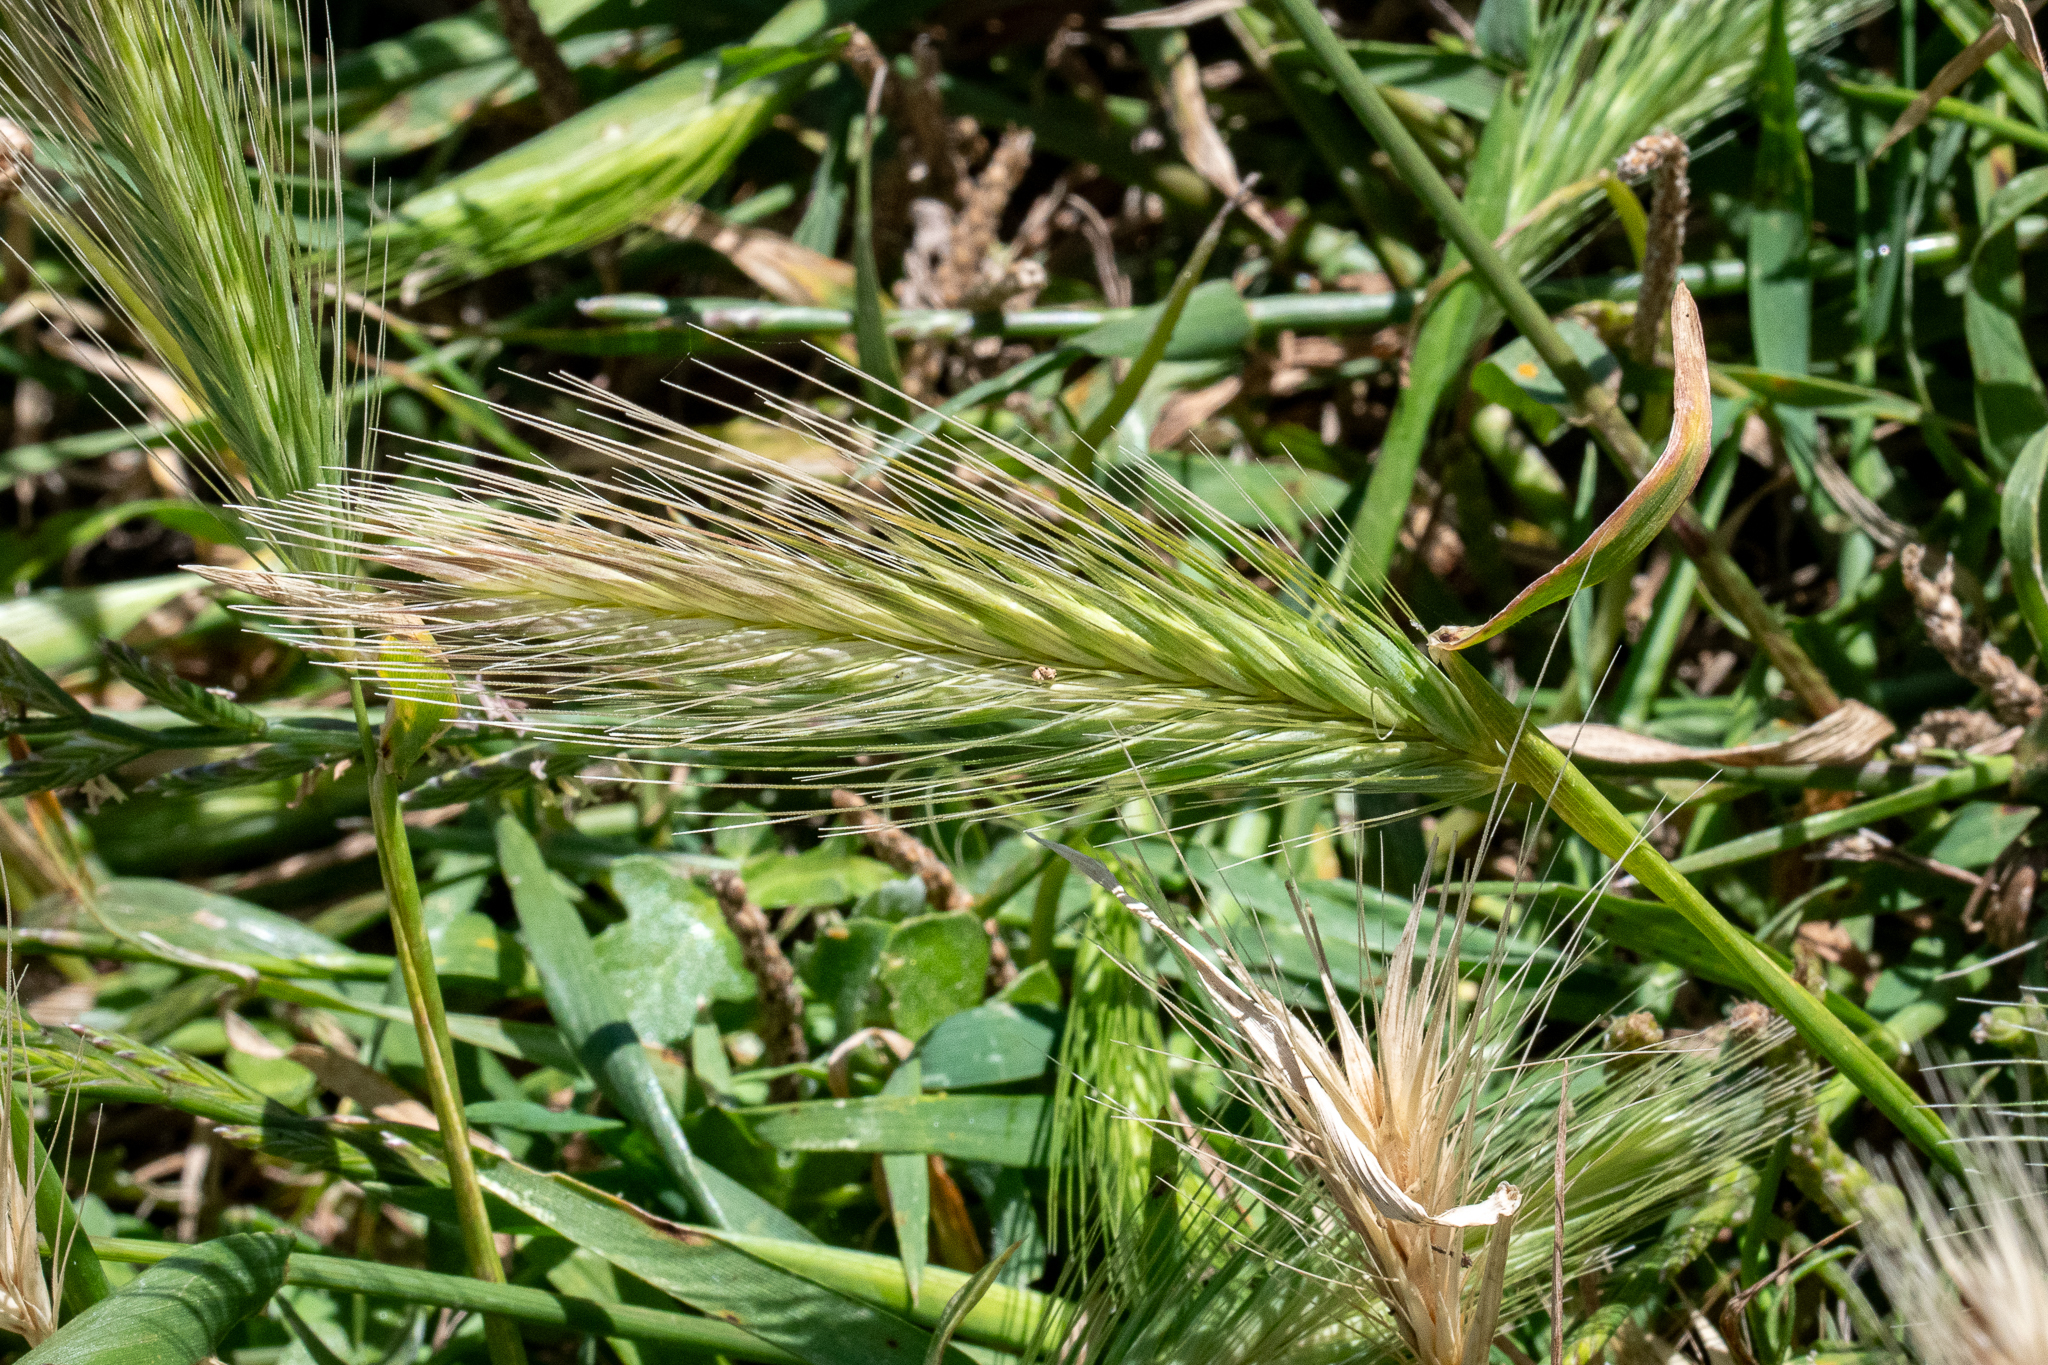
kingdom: Plantae
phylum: Tracheophyta
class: Liliopsida
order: Poales
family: Poaceae
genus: Hordeum
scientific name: Hordeum murinum
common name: Wall barley
